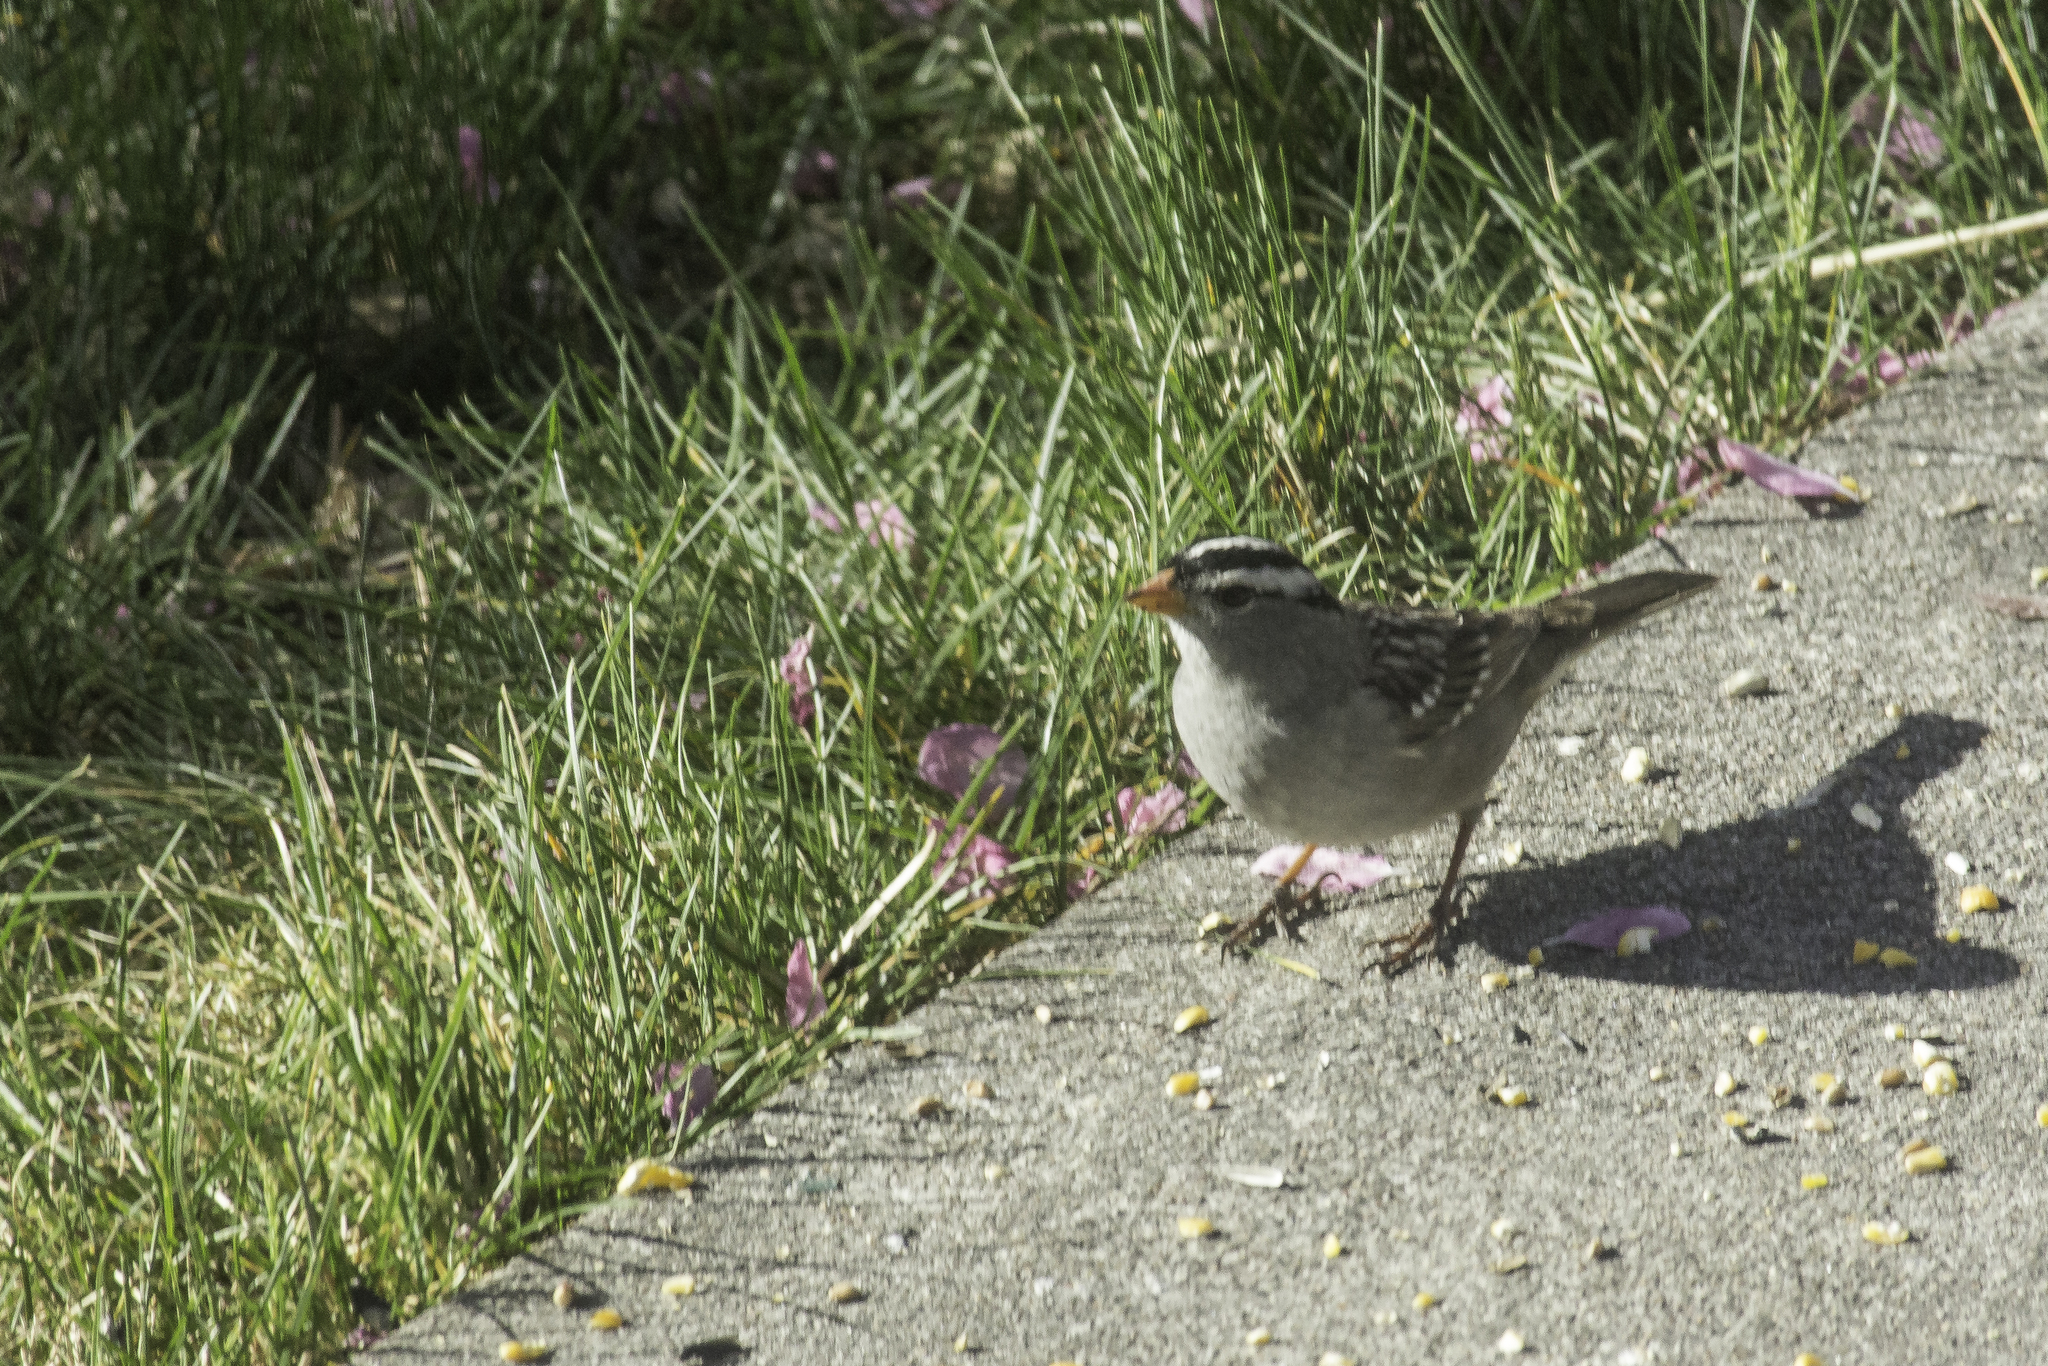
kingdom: Animalia
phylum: Chordata
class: Aves
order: Passeriformes
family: Passerellidae
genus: Zonotrichia
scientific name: Zonotrichia leucophrys
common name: White-crowned sparrow
